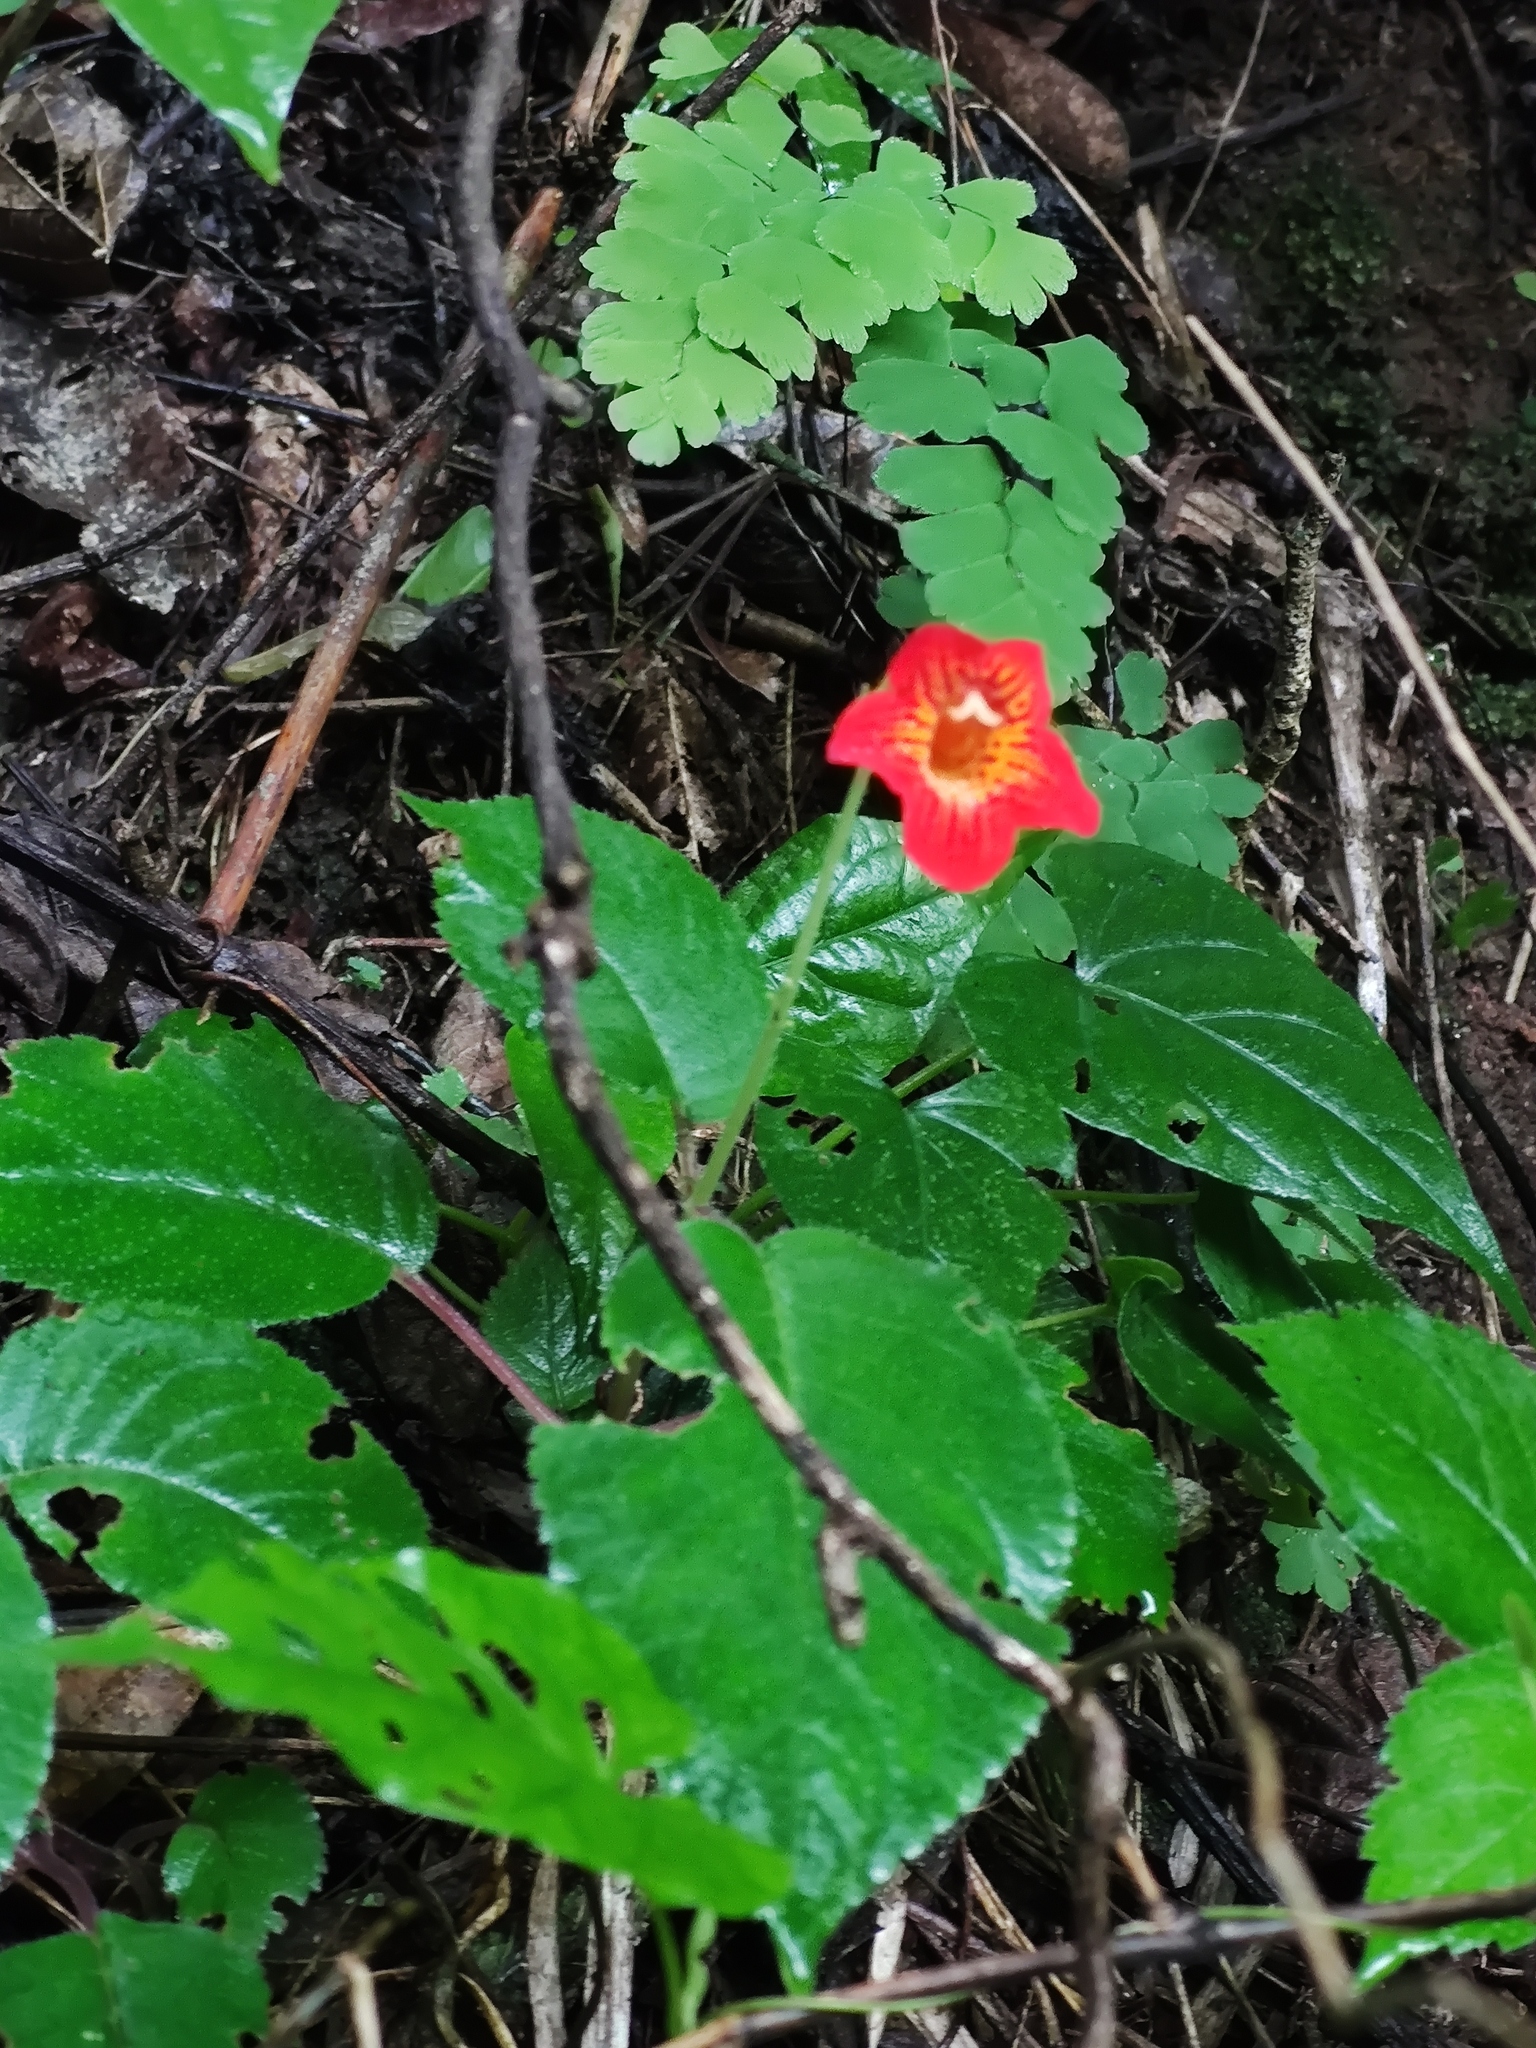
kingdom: Plantae
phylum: Tracheophyta
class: Magnoliopsida
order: Lamiales
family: Gesneriaceae
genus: Achimenes
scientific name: Achimenes pedunculata
